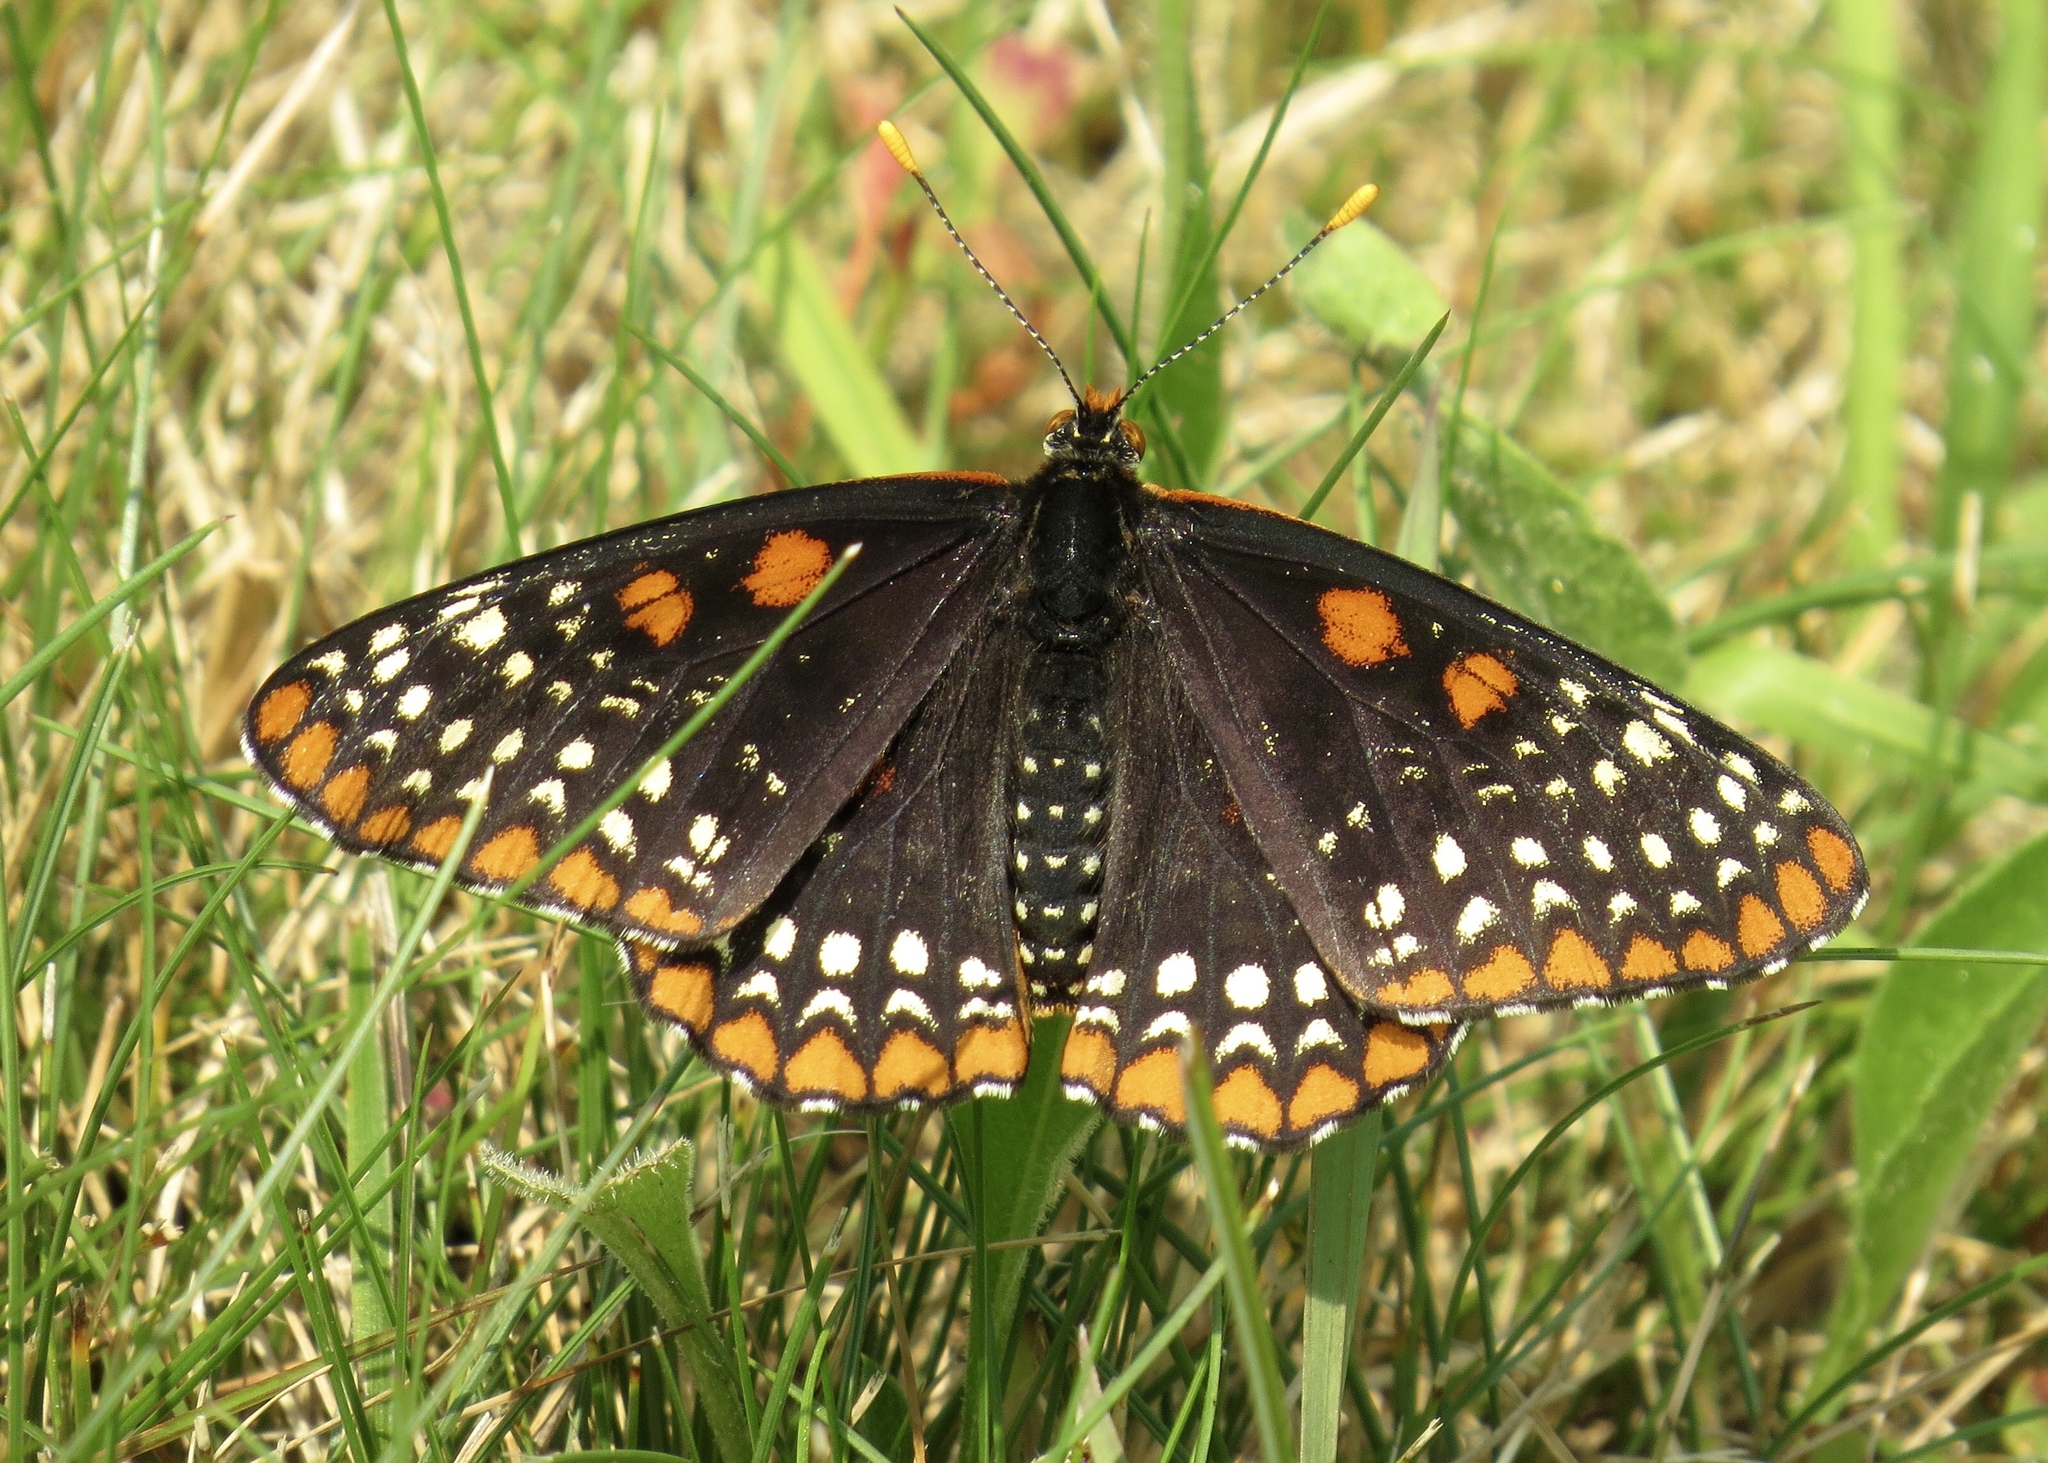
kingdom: Animalia
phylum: Arthropoda
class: Insecta
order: Lepidoptera
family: Nymphalidae
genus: Euphydryas
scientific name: Euphydryas phaeton
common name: Baltimore checkerspot
